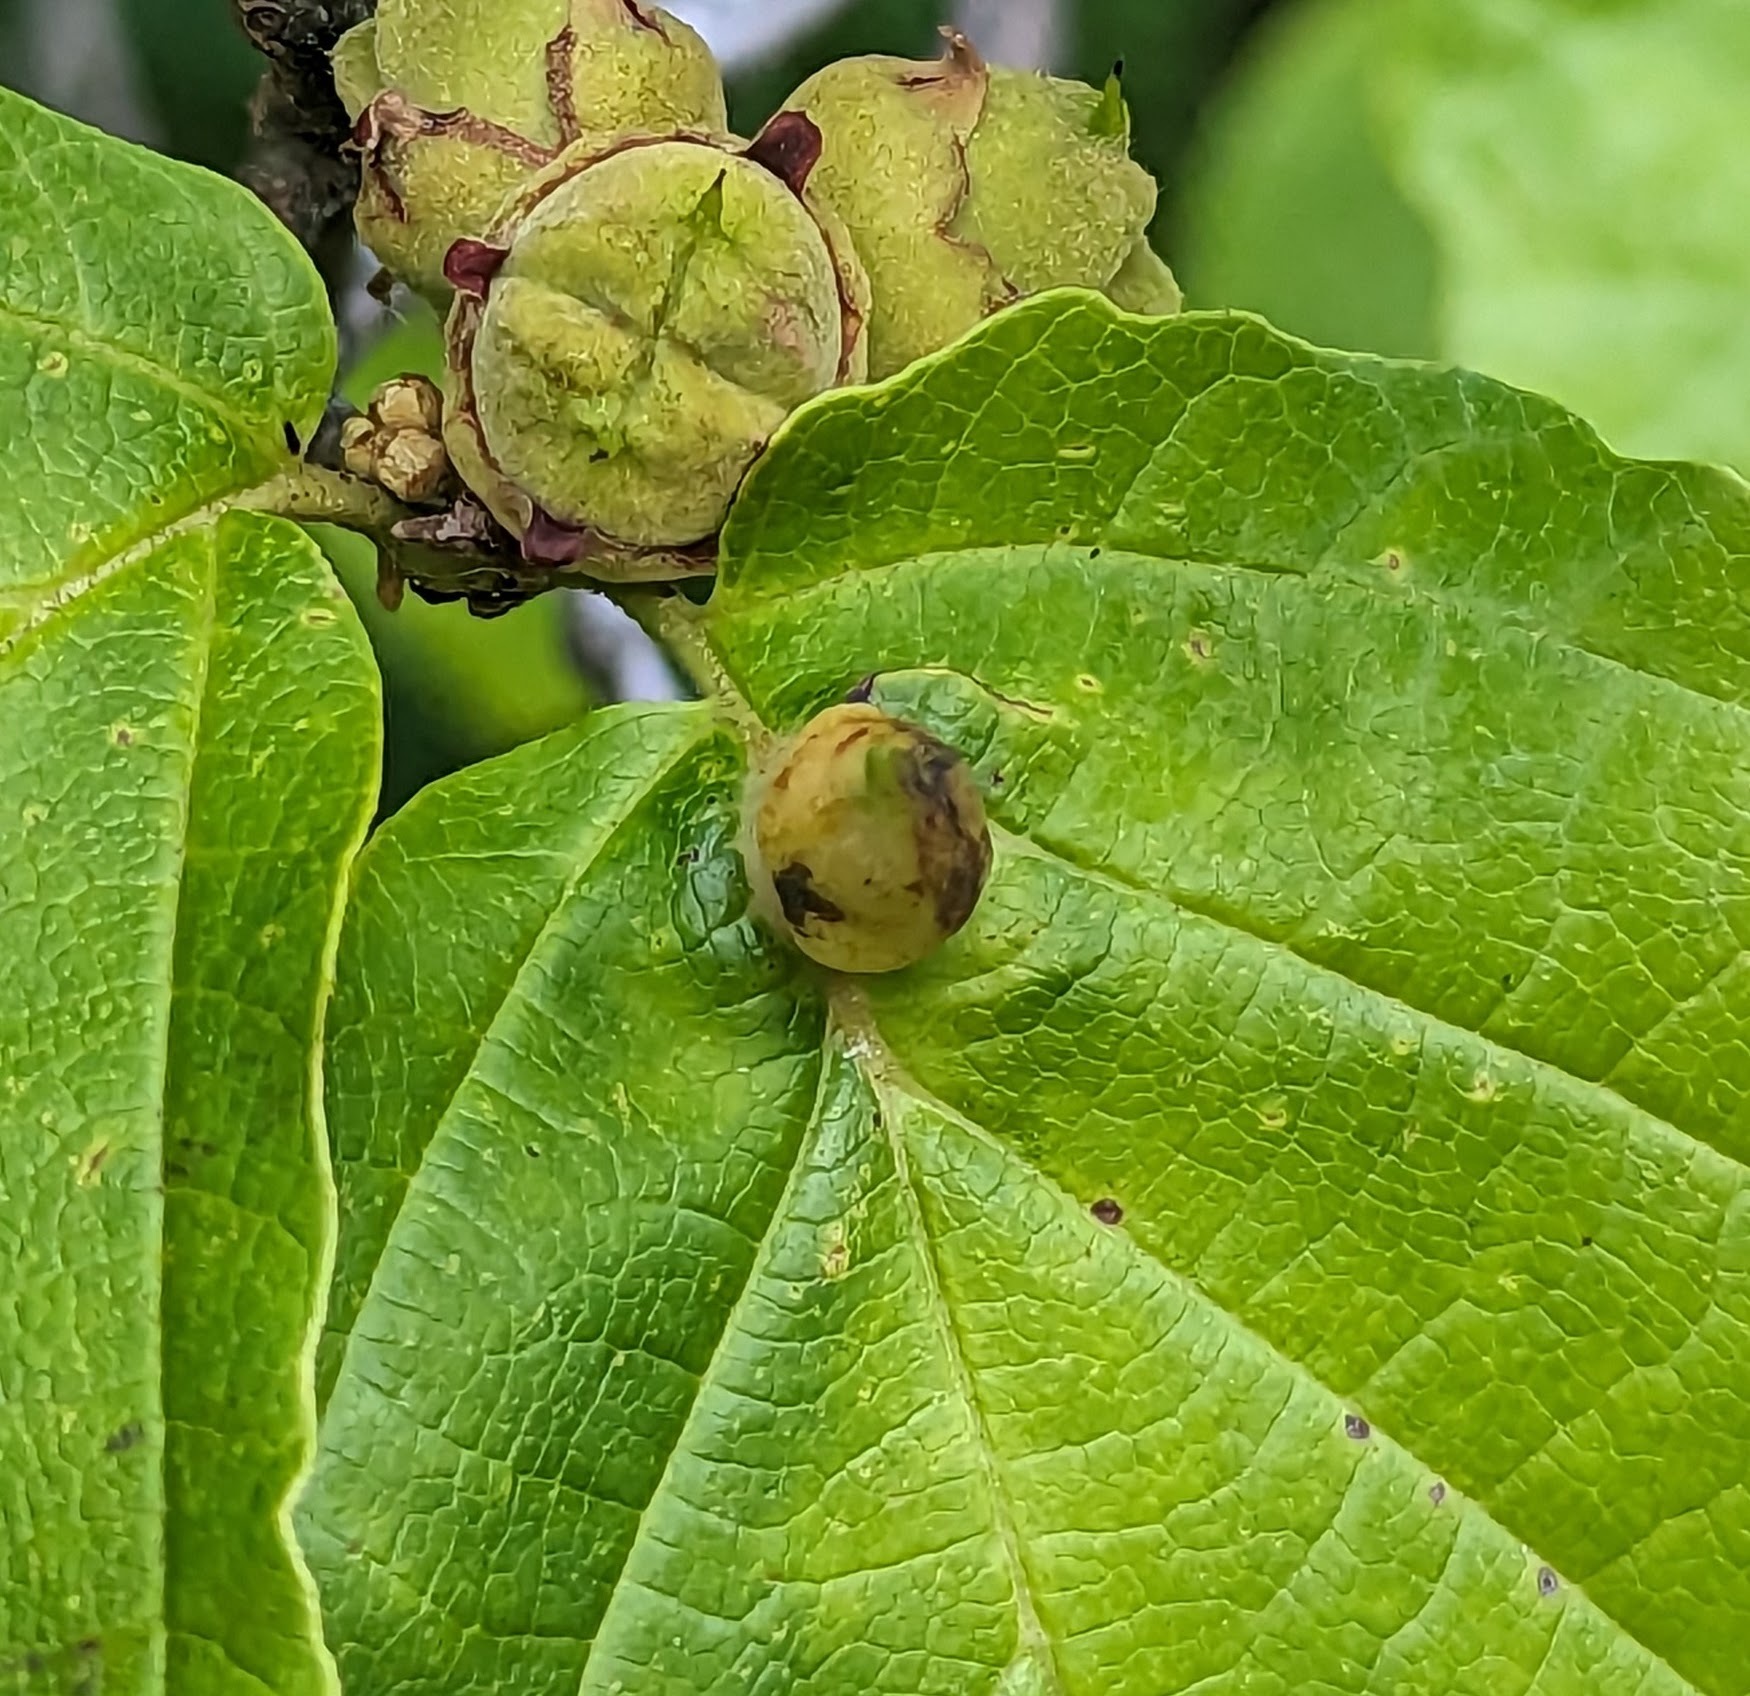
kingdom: Animalia
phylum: Arthropoda
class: Insecta
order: Hemiptera
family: Aphididae
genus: Hormaphis
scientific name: Hormaphis hamamelidis
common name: Witch-hazel cone gall aphid
